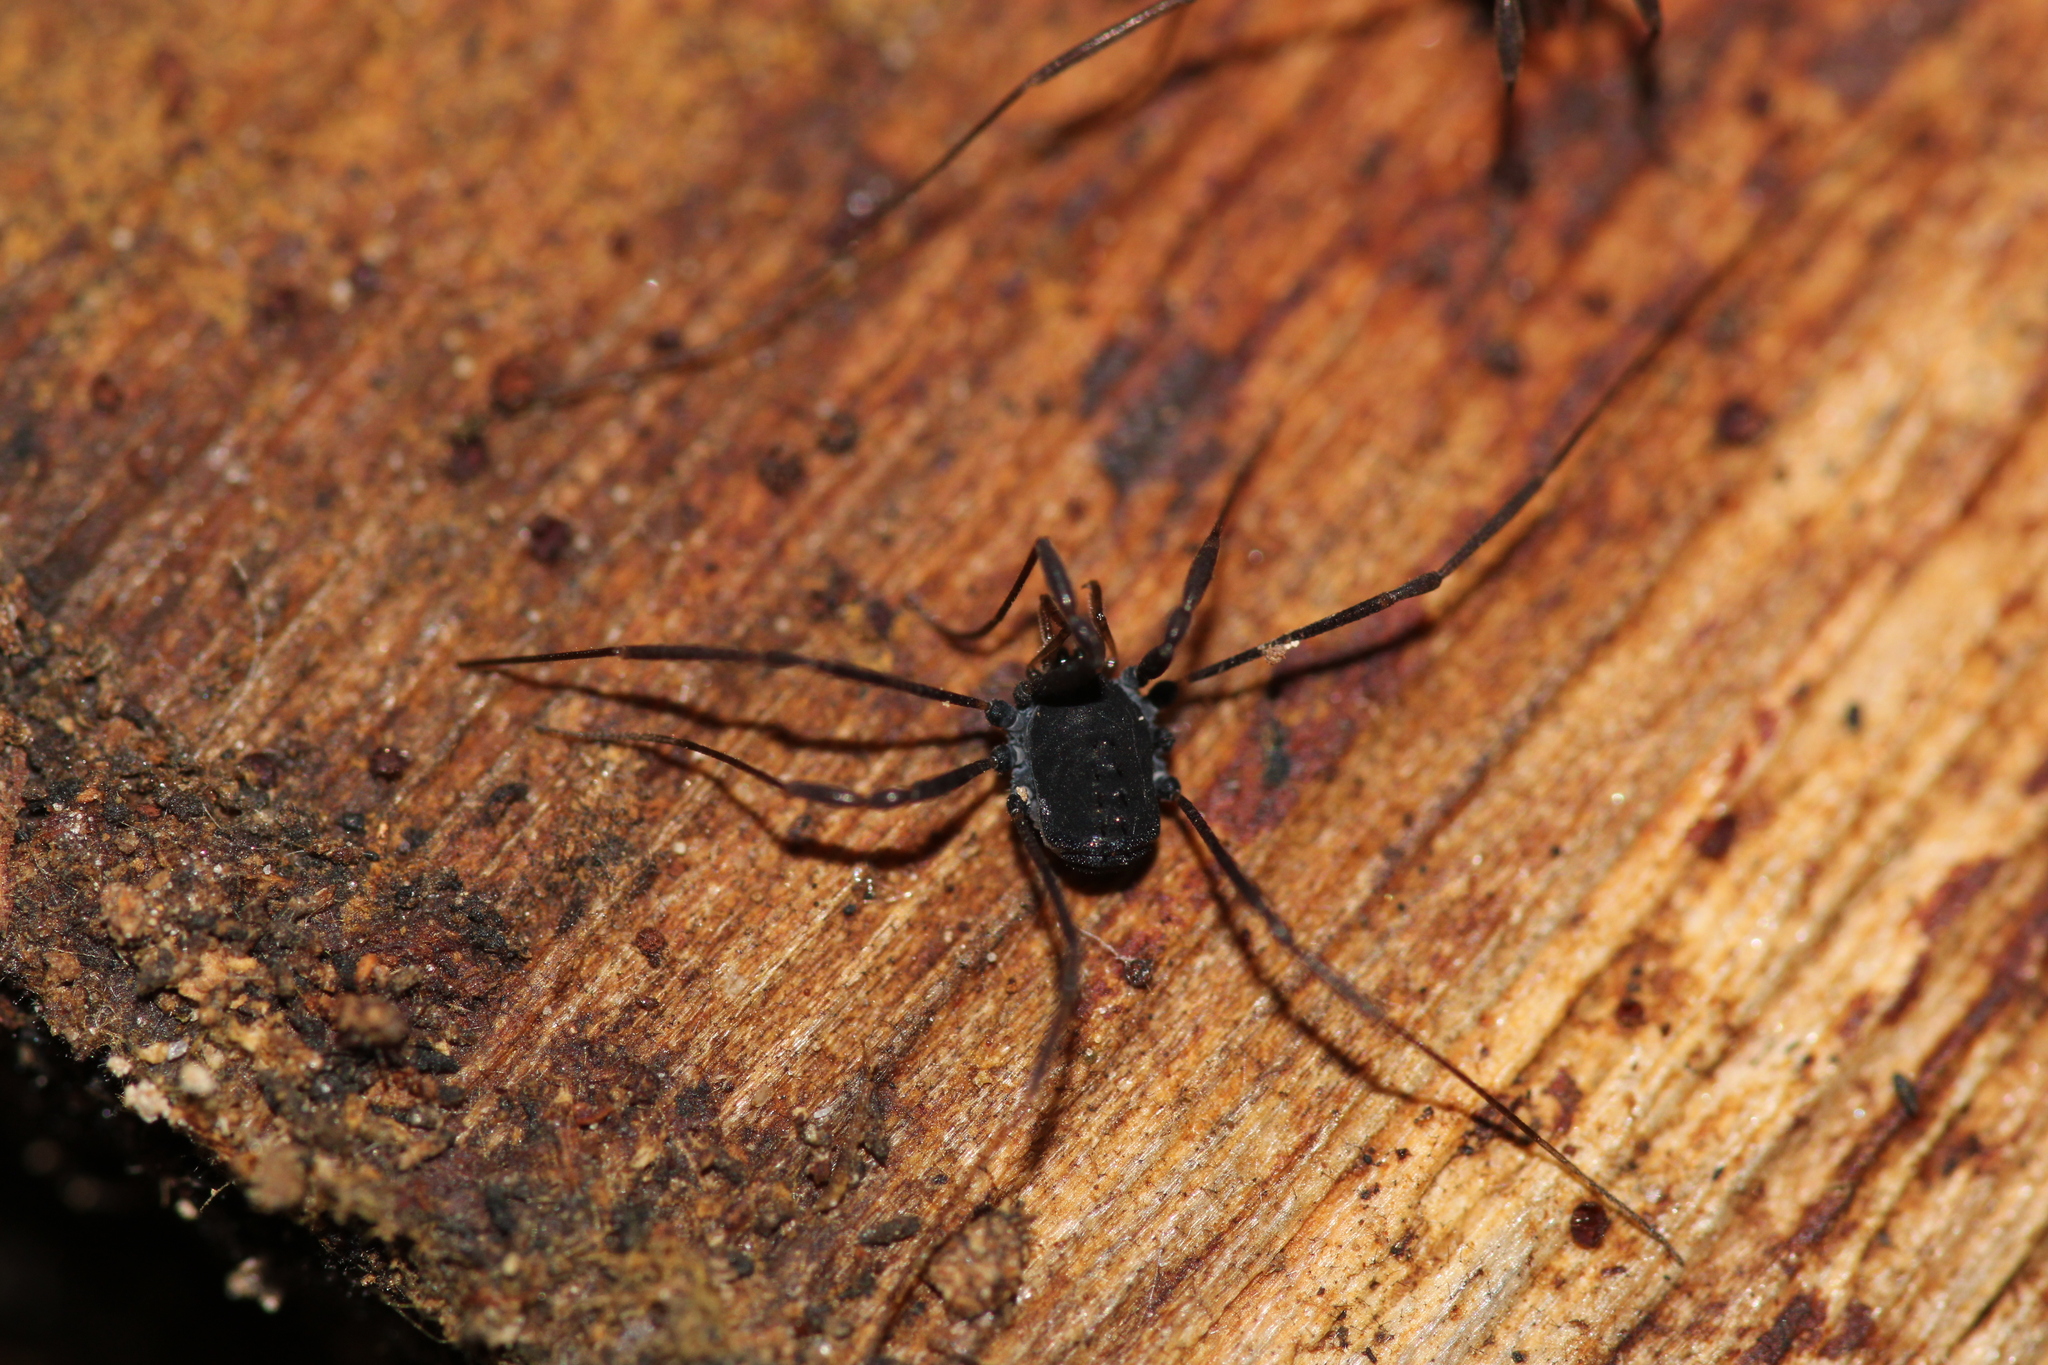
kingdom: Animalia
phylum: Arthropoda
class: Arachnida
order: Opiliones
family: Nemastomatidae
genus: Histricostoma
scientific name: Histricostoma dentipalpe
